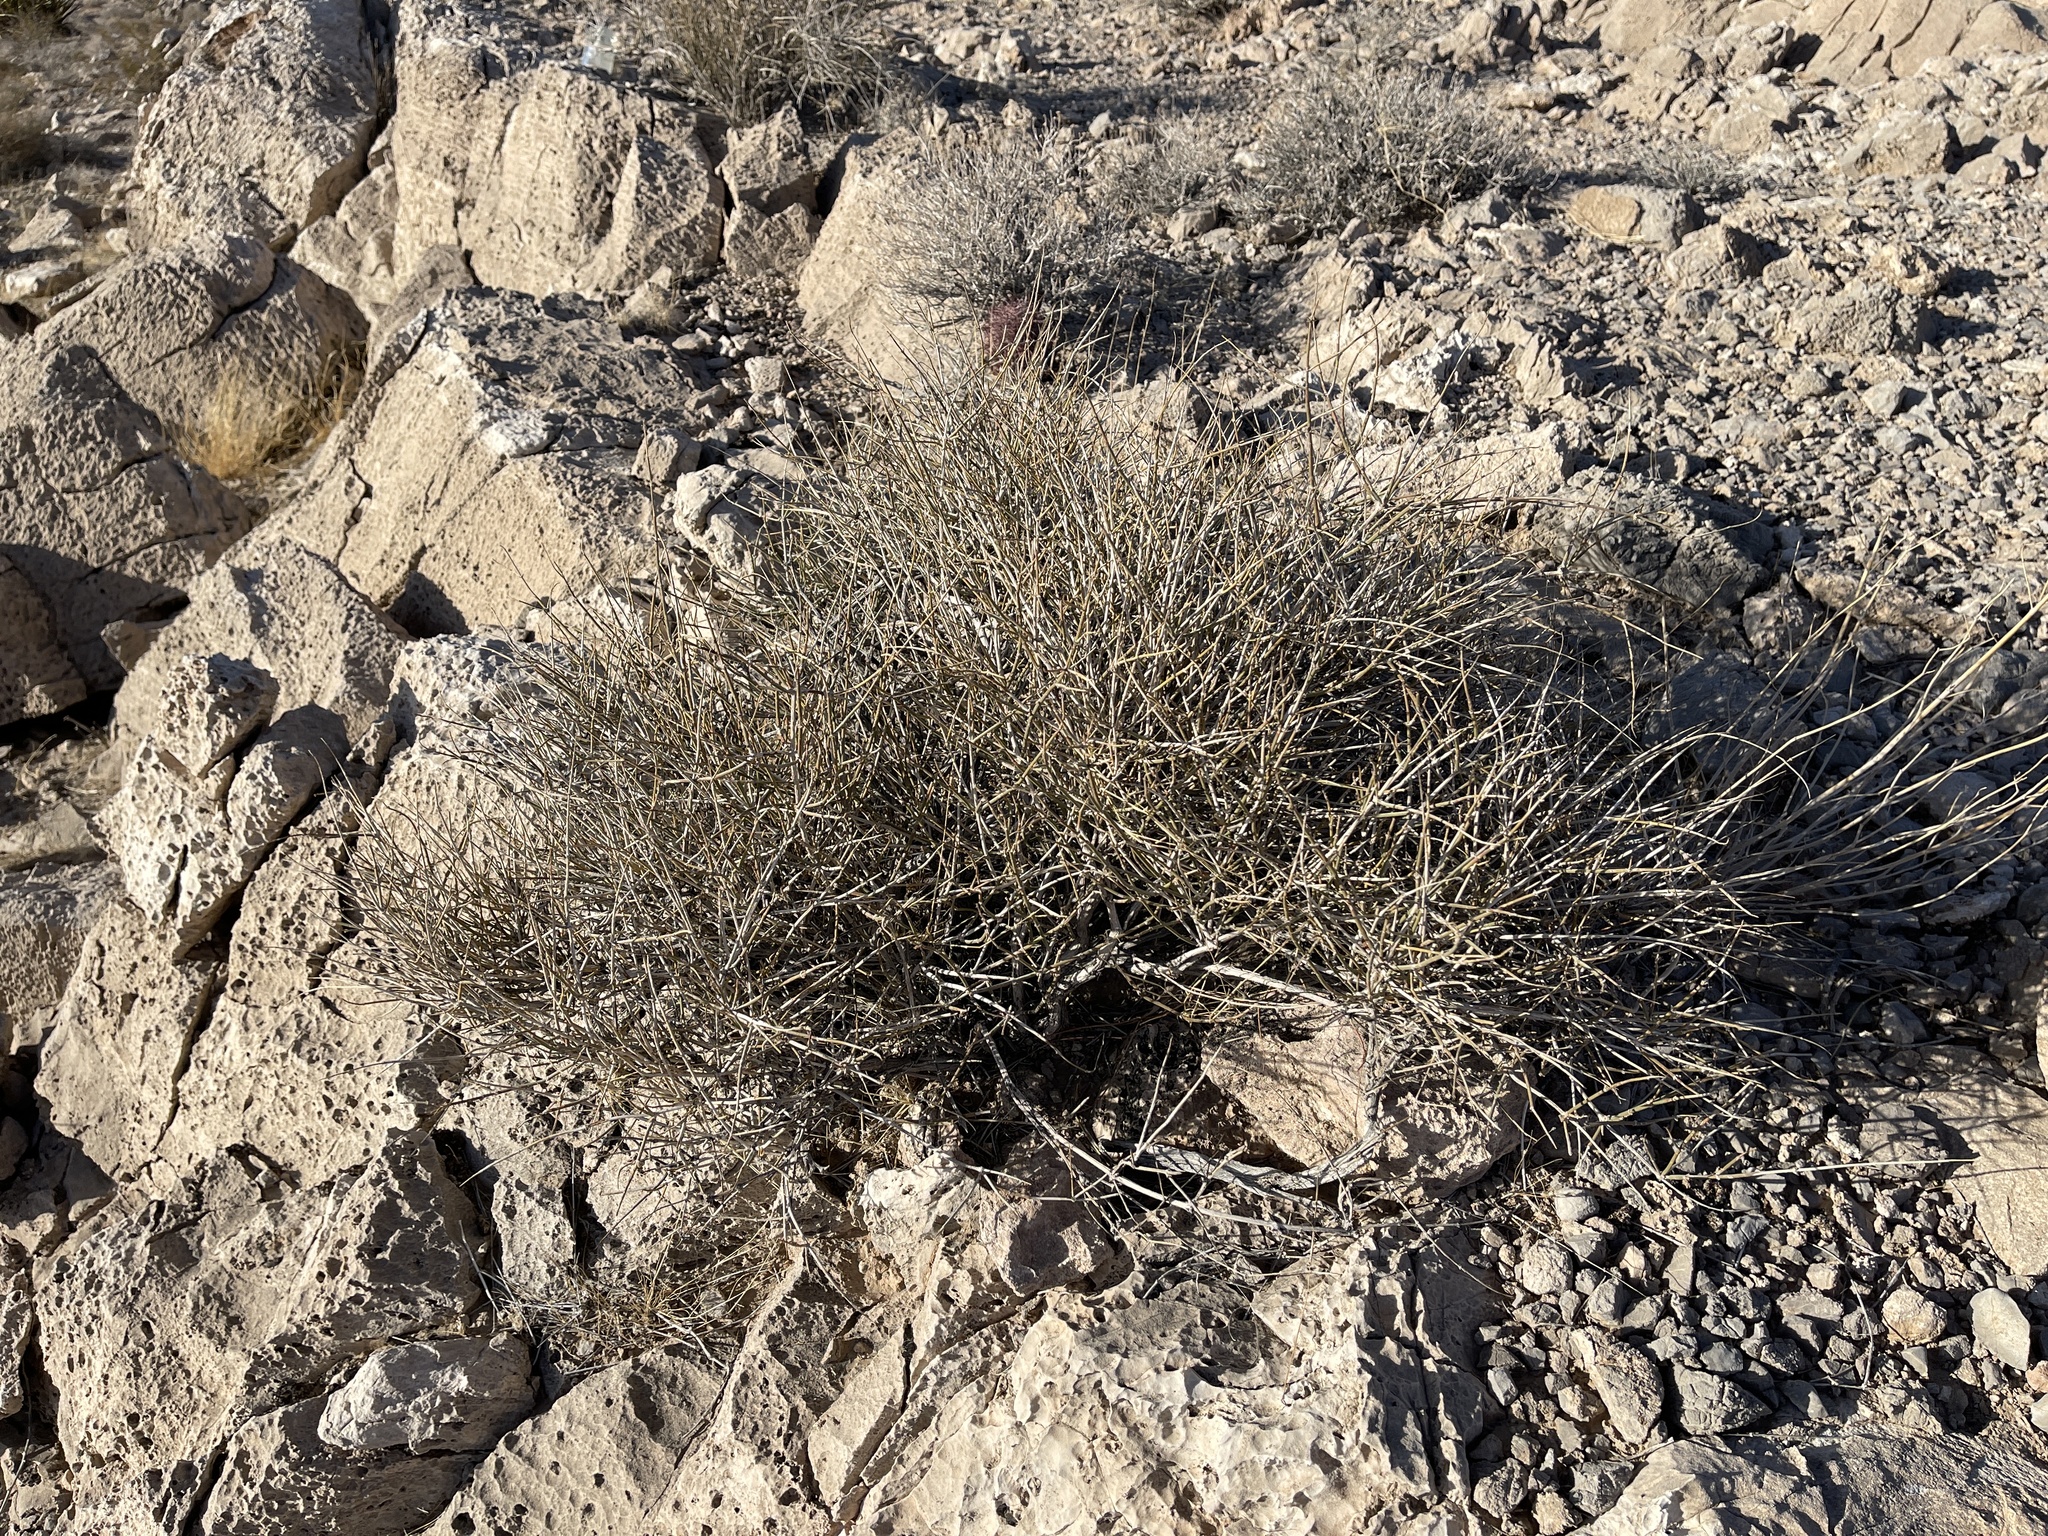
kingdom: Plantae
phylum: Tracheophyta
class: Gnetopsida
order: Ephedrales
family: Ephedraceae
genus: Ephedra
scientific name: Ephedra nevadensis
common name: Gray ephedra
